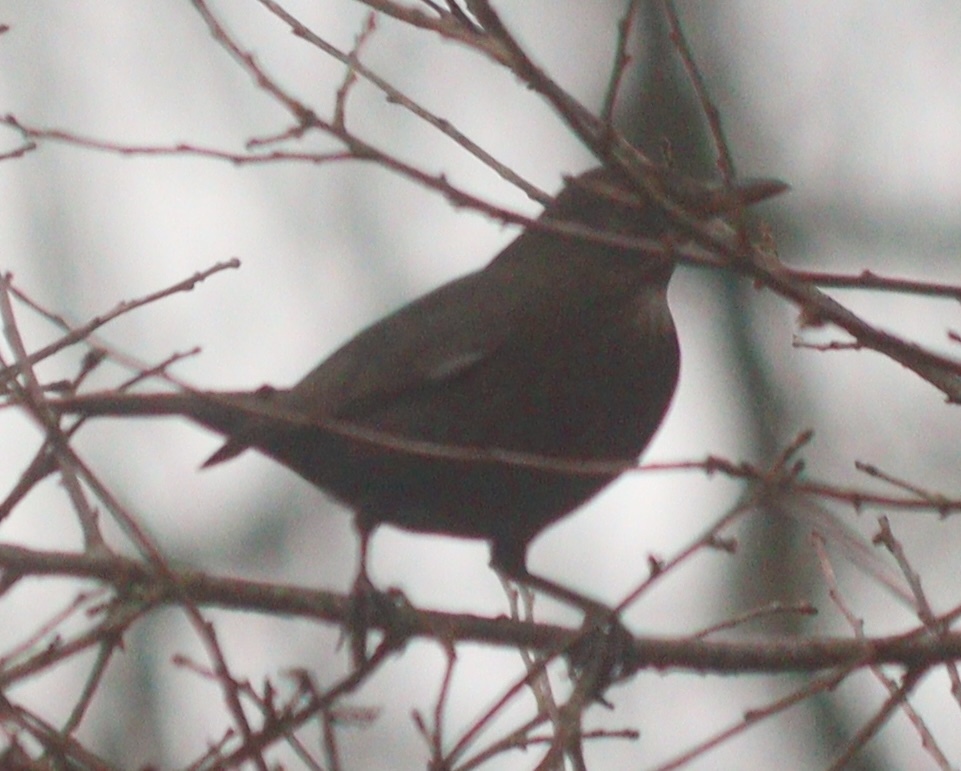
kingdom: Animalia
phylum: Chordata
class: Aves
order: Passeriformes
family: Turdidae
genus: Turdus
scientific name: Turdus merula
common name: Common blackbird
